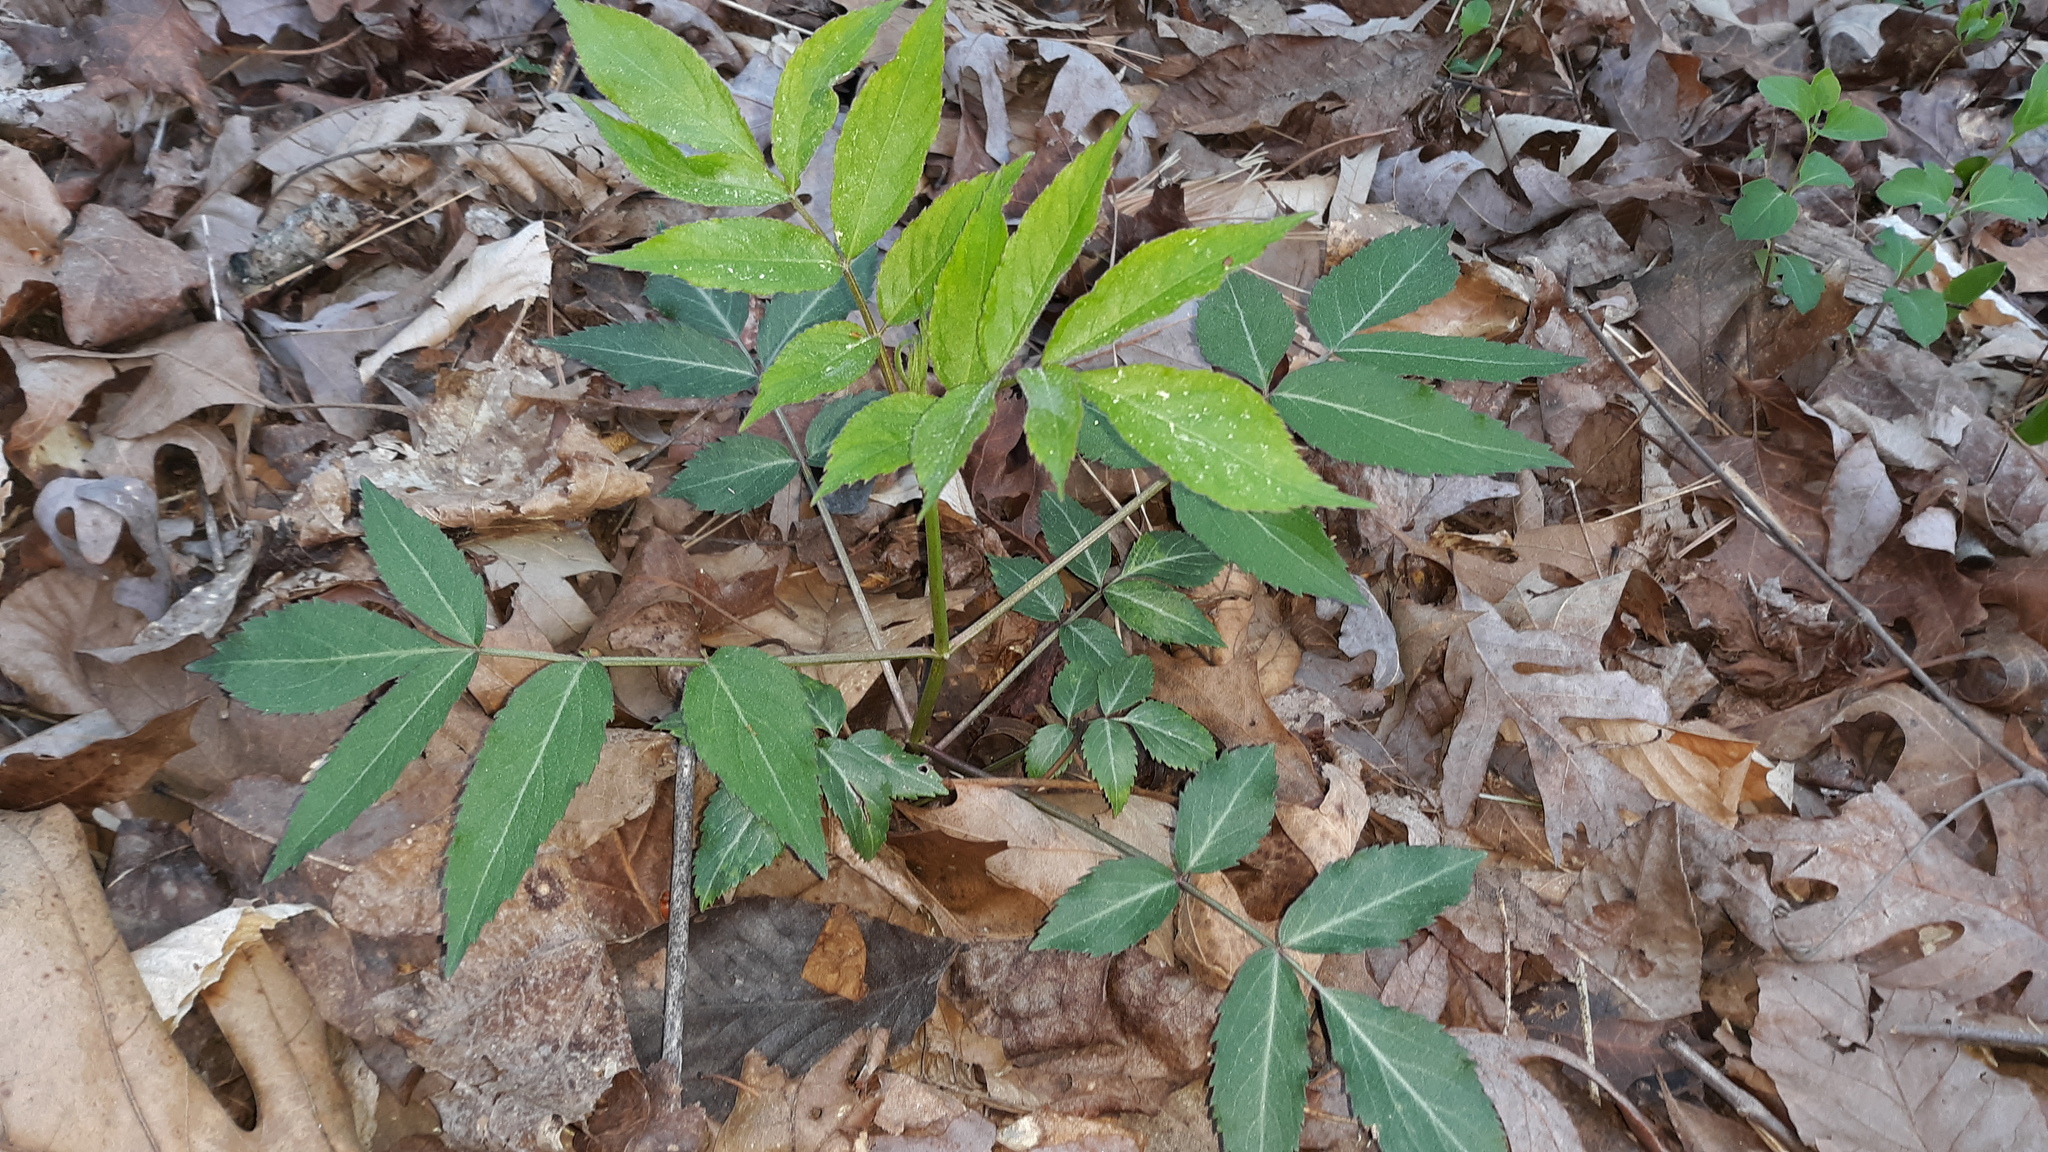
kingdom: Plantae
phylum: Tracheophyta
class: Magnoliopsida
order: Dipsacales
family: Viburnaceae
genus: Sambucus
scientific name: Sambucus canadensis
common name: American elder
